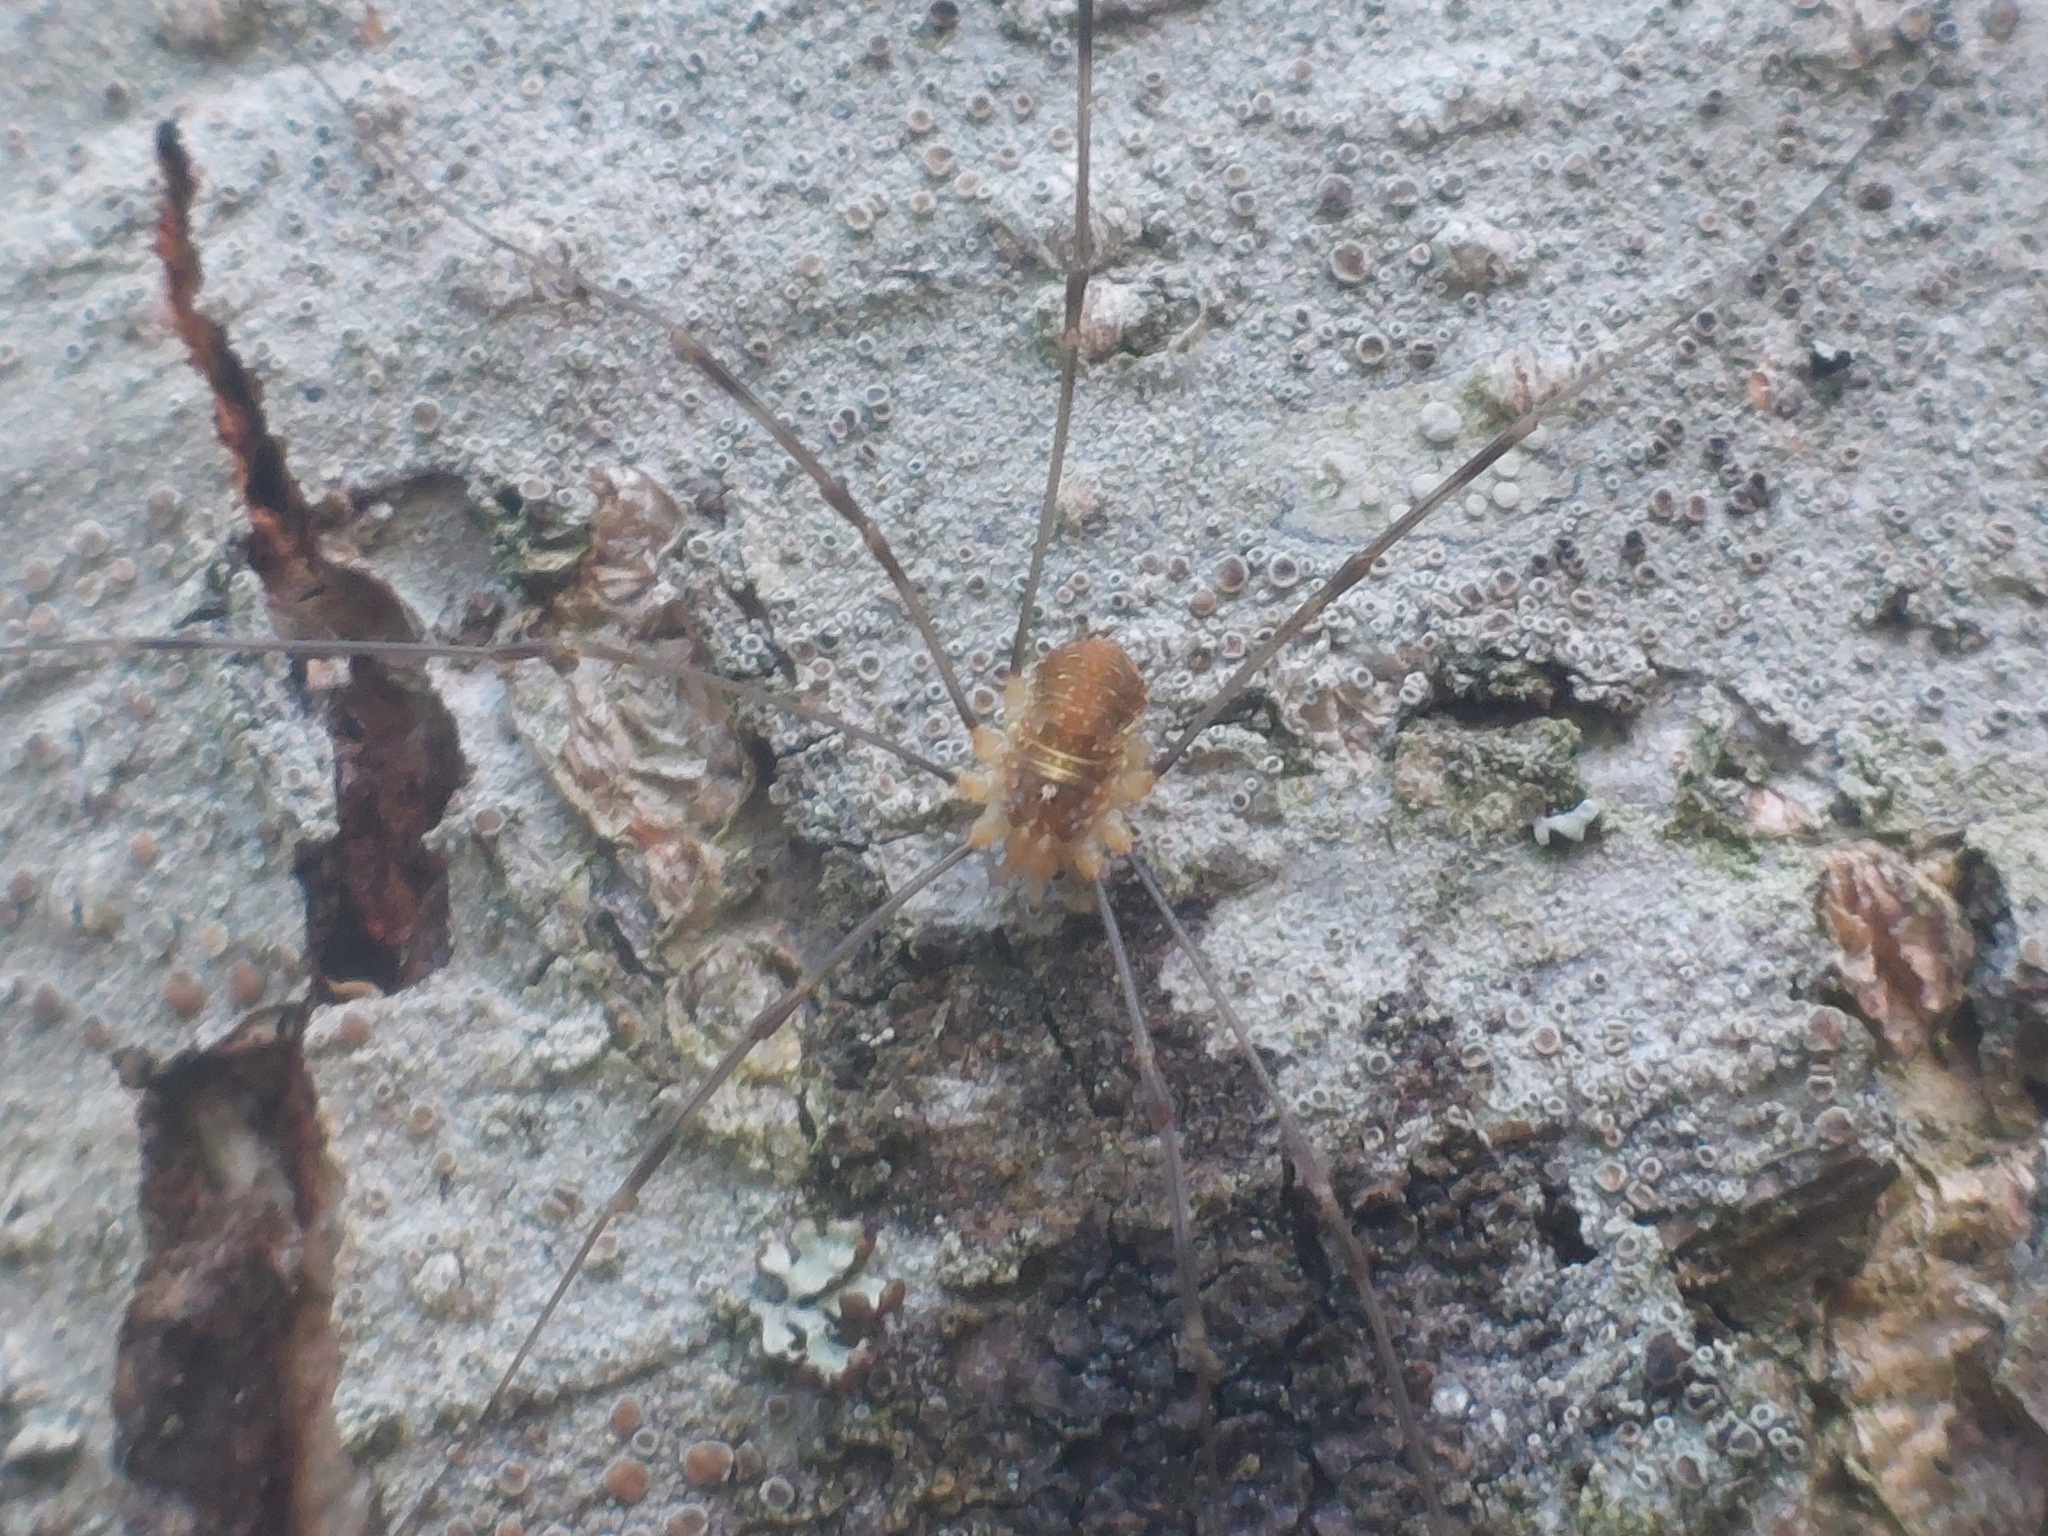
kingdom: Animalia
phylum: Arthropoda
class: Arachnida
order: Opiliones
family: Phalangiidae
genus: Opilio
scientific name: Opilio canestrinii
